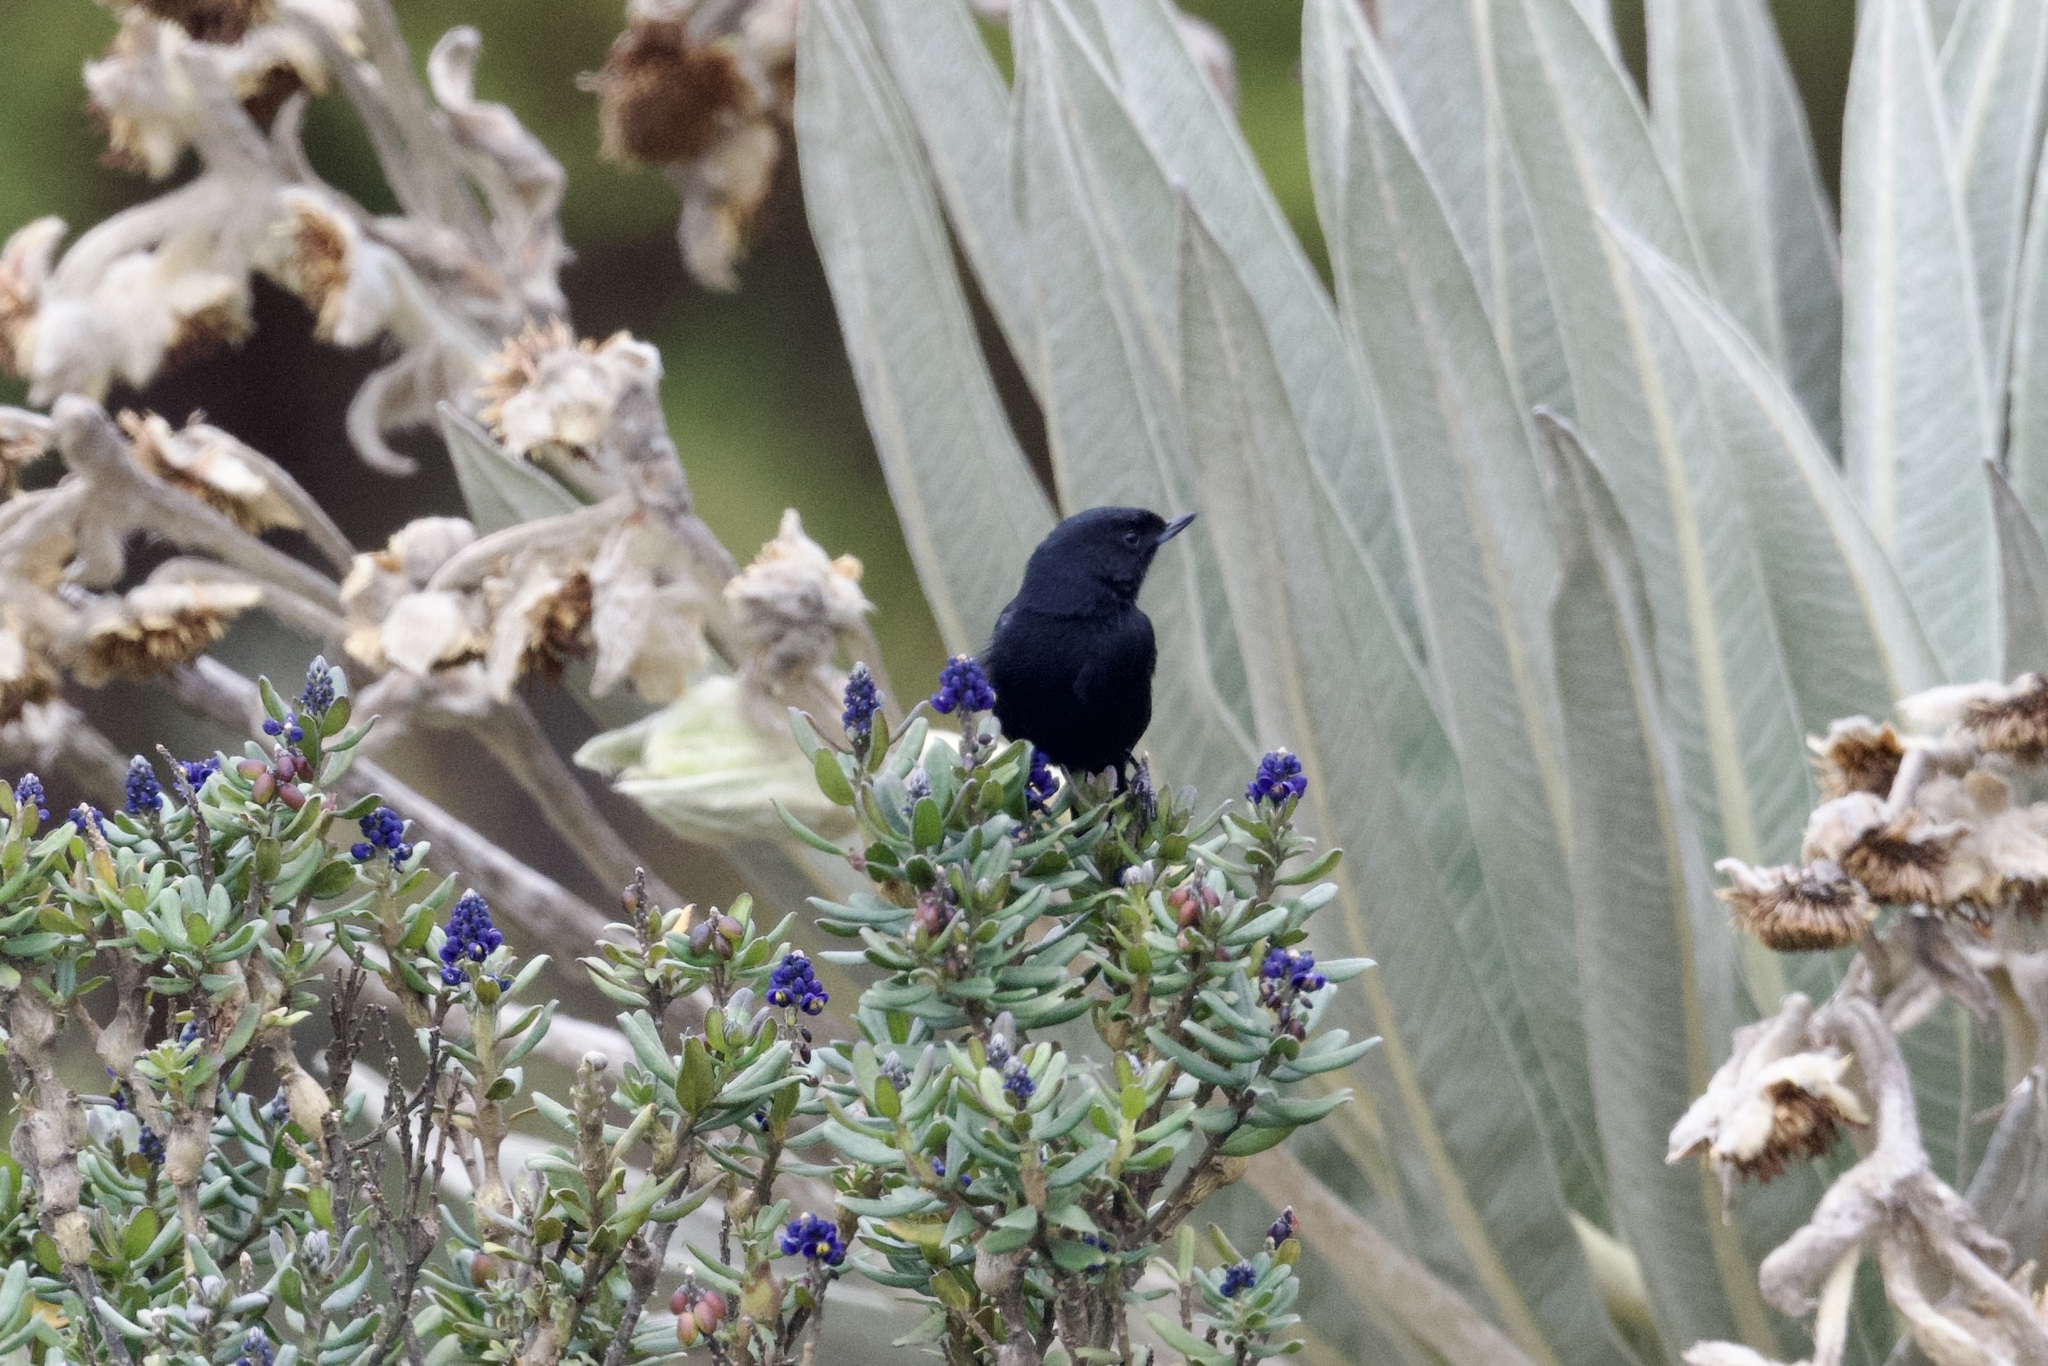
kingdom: Animalia
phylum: Chordata
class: Aves
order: Passeriformes
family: Thraupidae
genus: Diglossa
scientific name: Diglossa lafresnayii
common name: Glossy flowerpiercer
